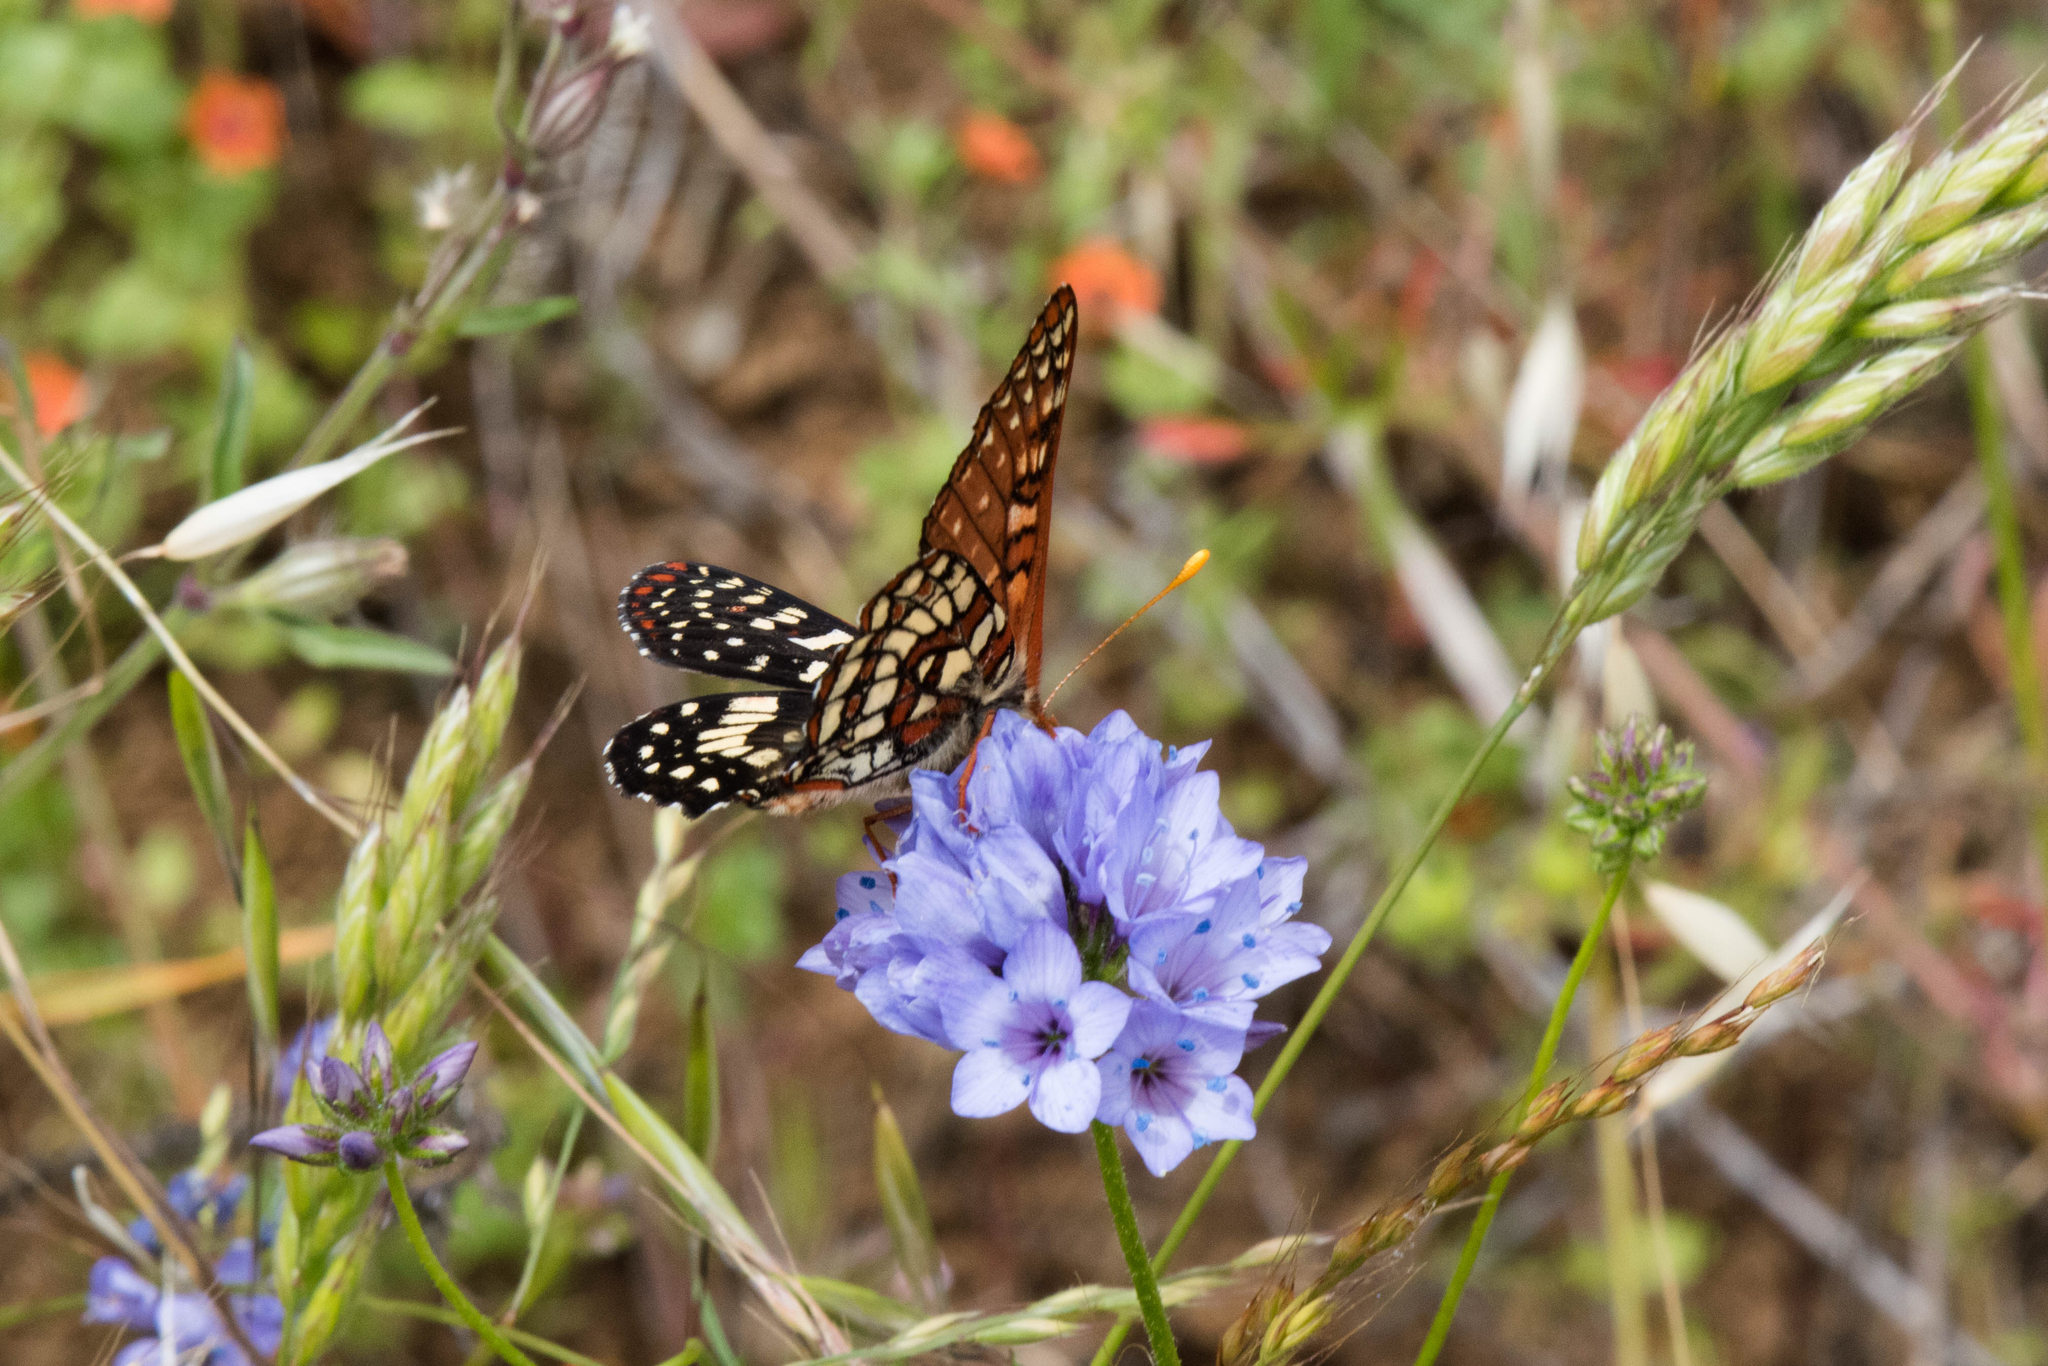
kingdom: Animalia
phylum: Arthropoda
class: Insecta
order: Lepidoptera
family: Nymphalidae
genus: Occidryas
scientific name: Occidryas chalcedona
